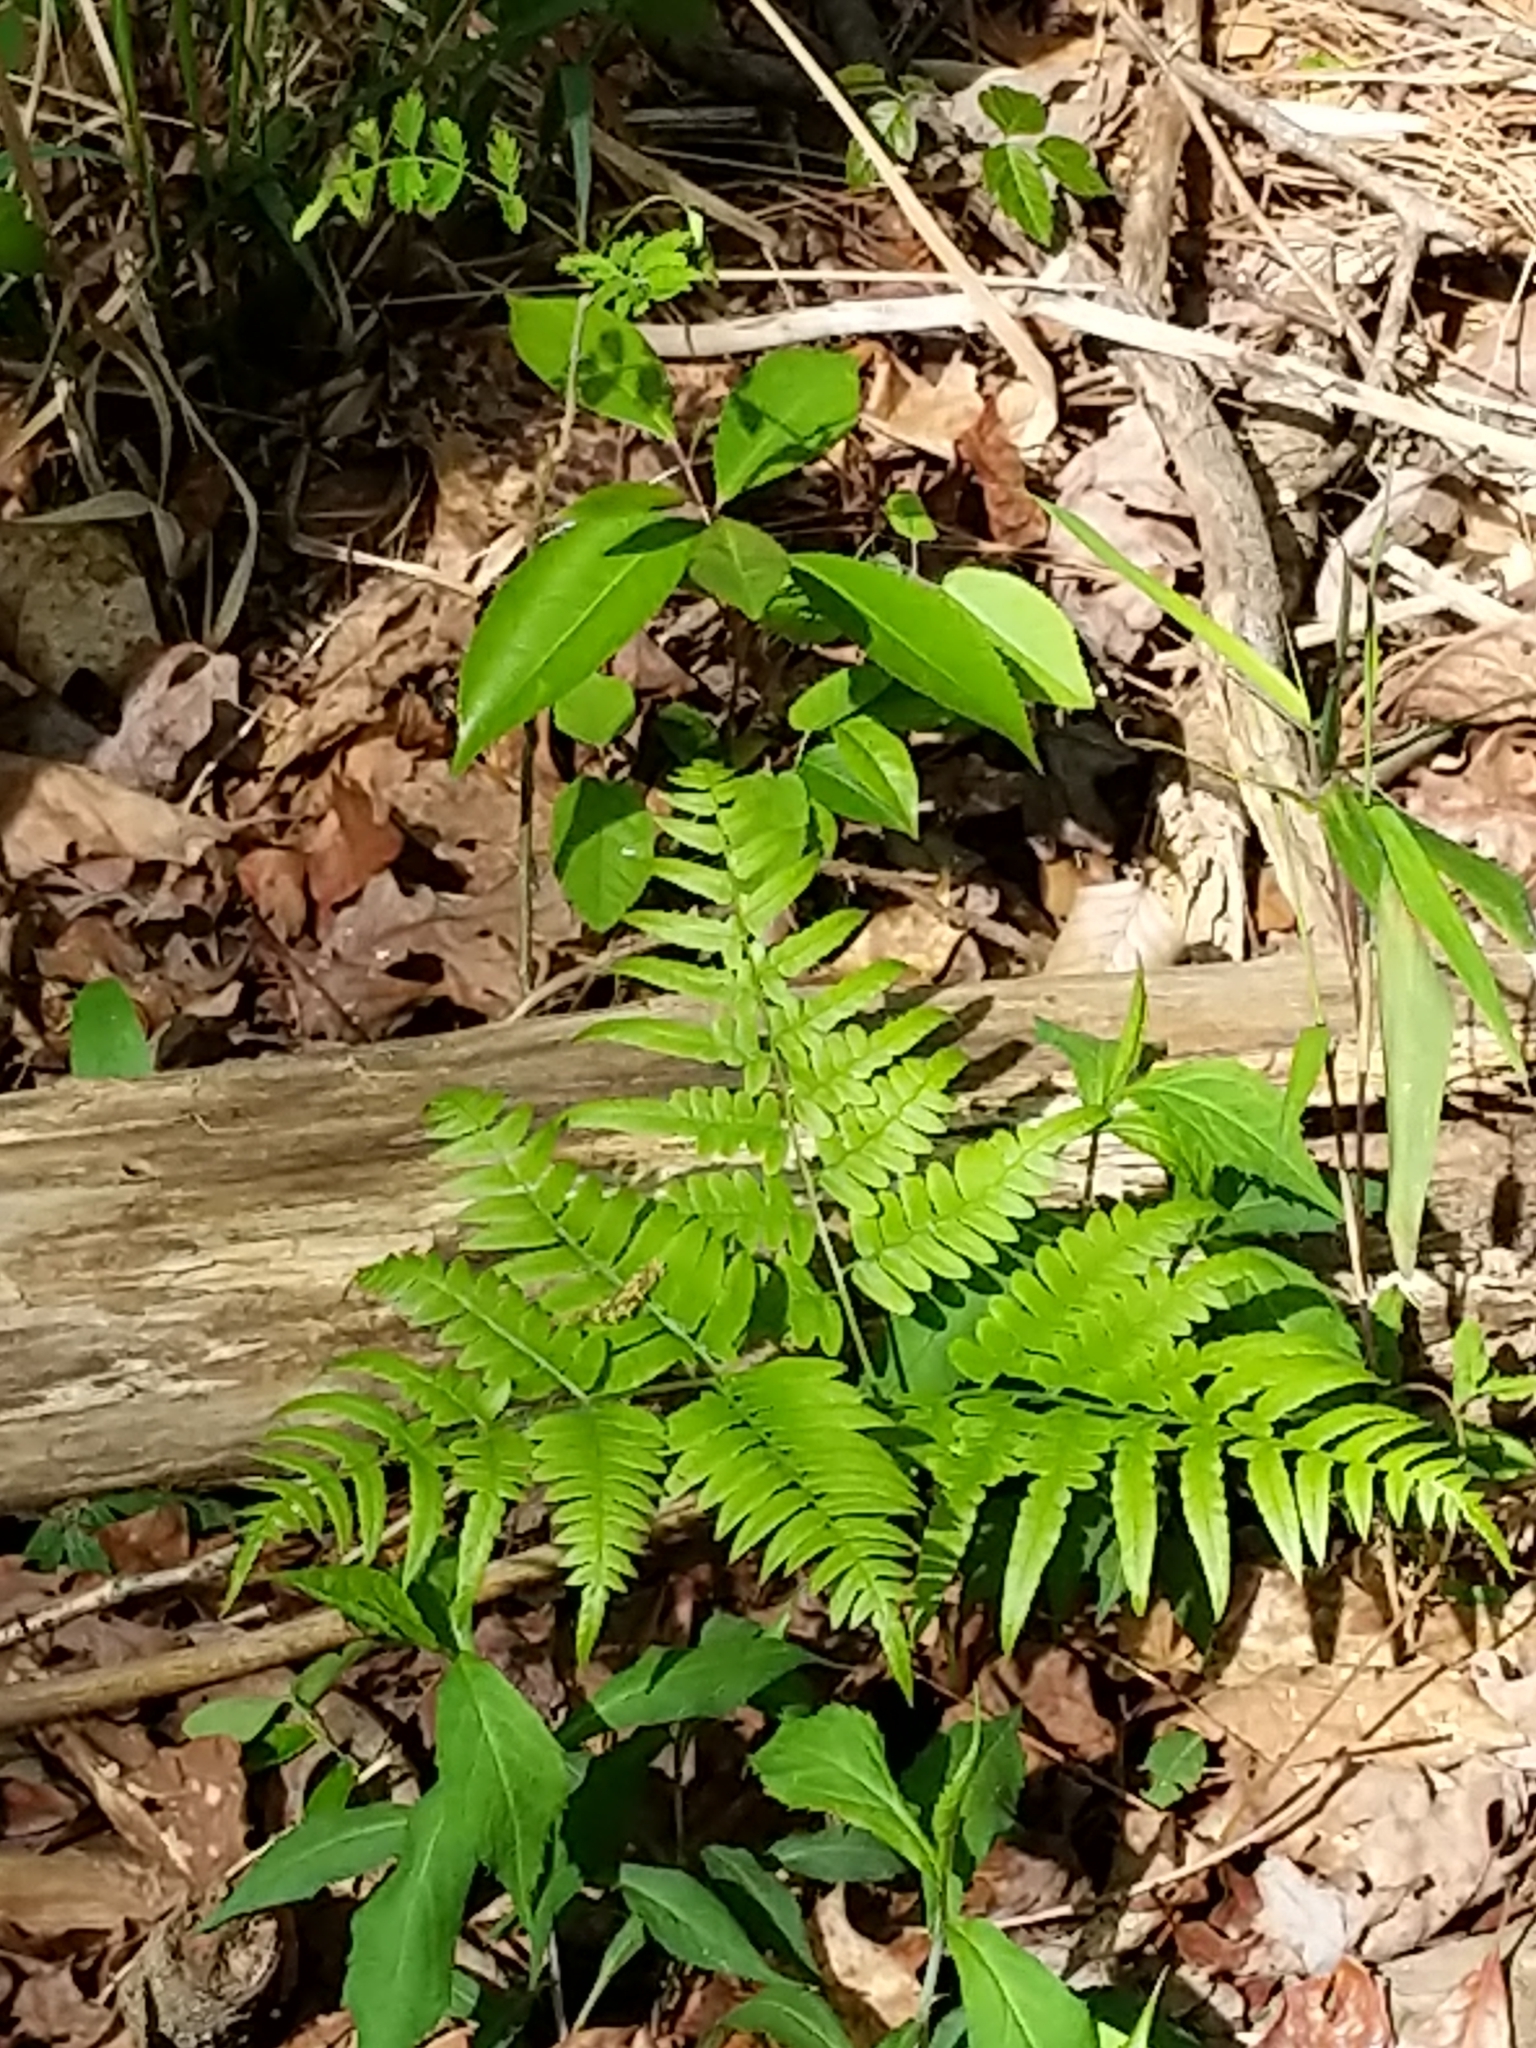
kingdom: Plantae
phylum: Tracheophyta
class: Polypodiopsida
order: Polypodiales
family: Dennstaedtiaceae
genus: Pteridium
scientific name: Pteridium
